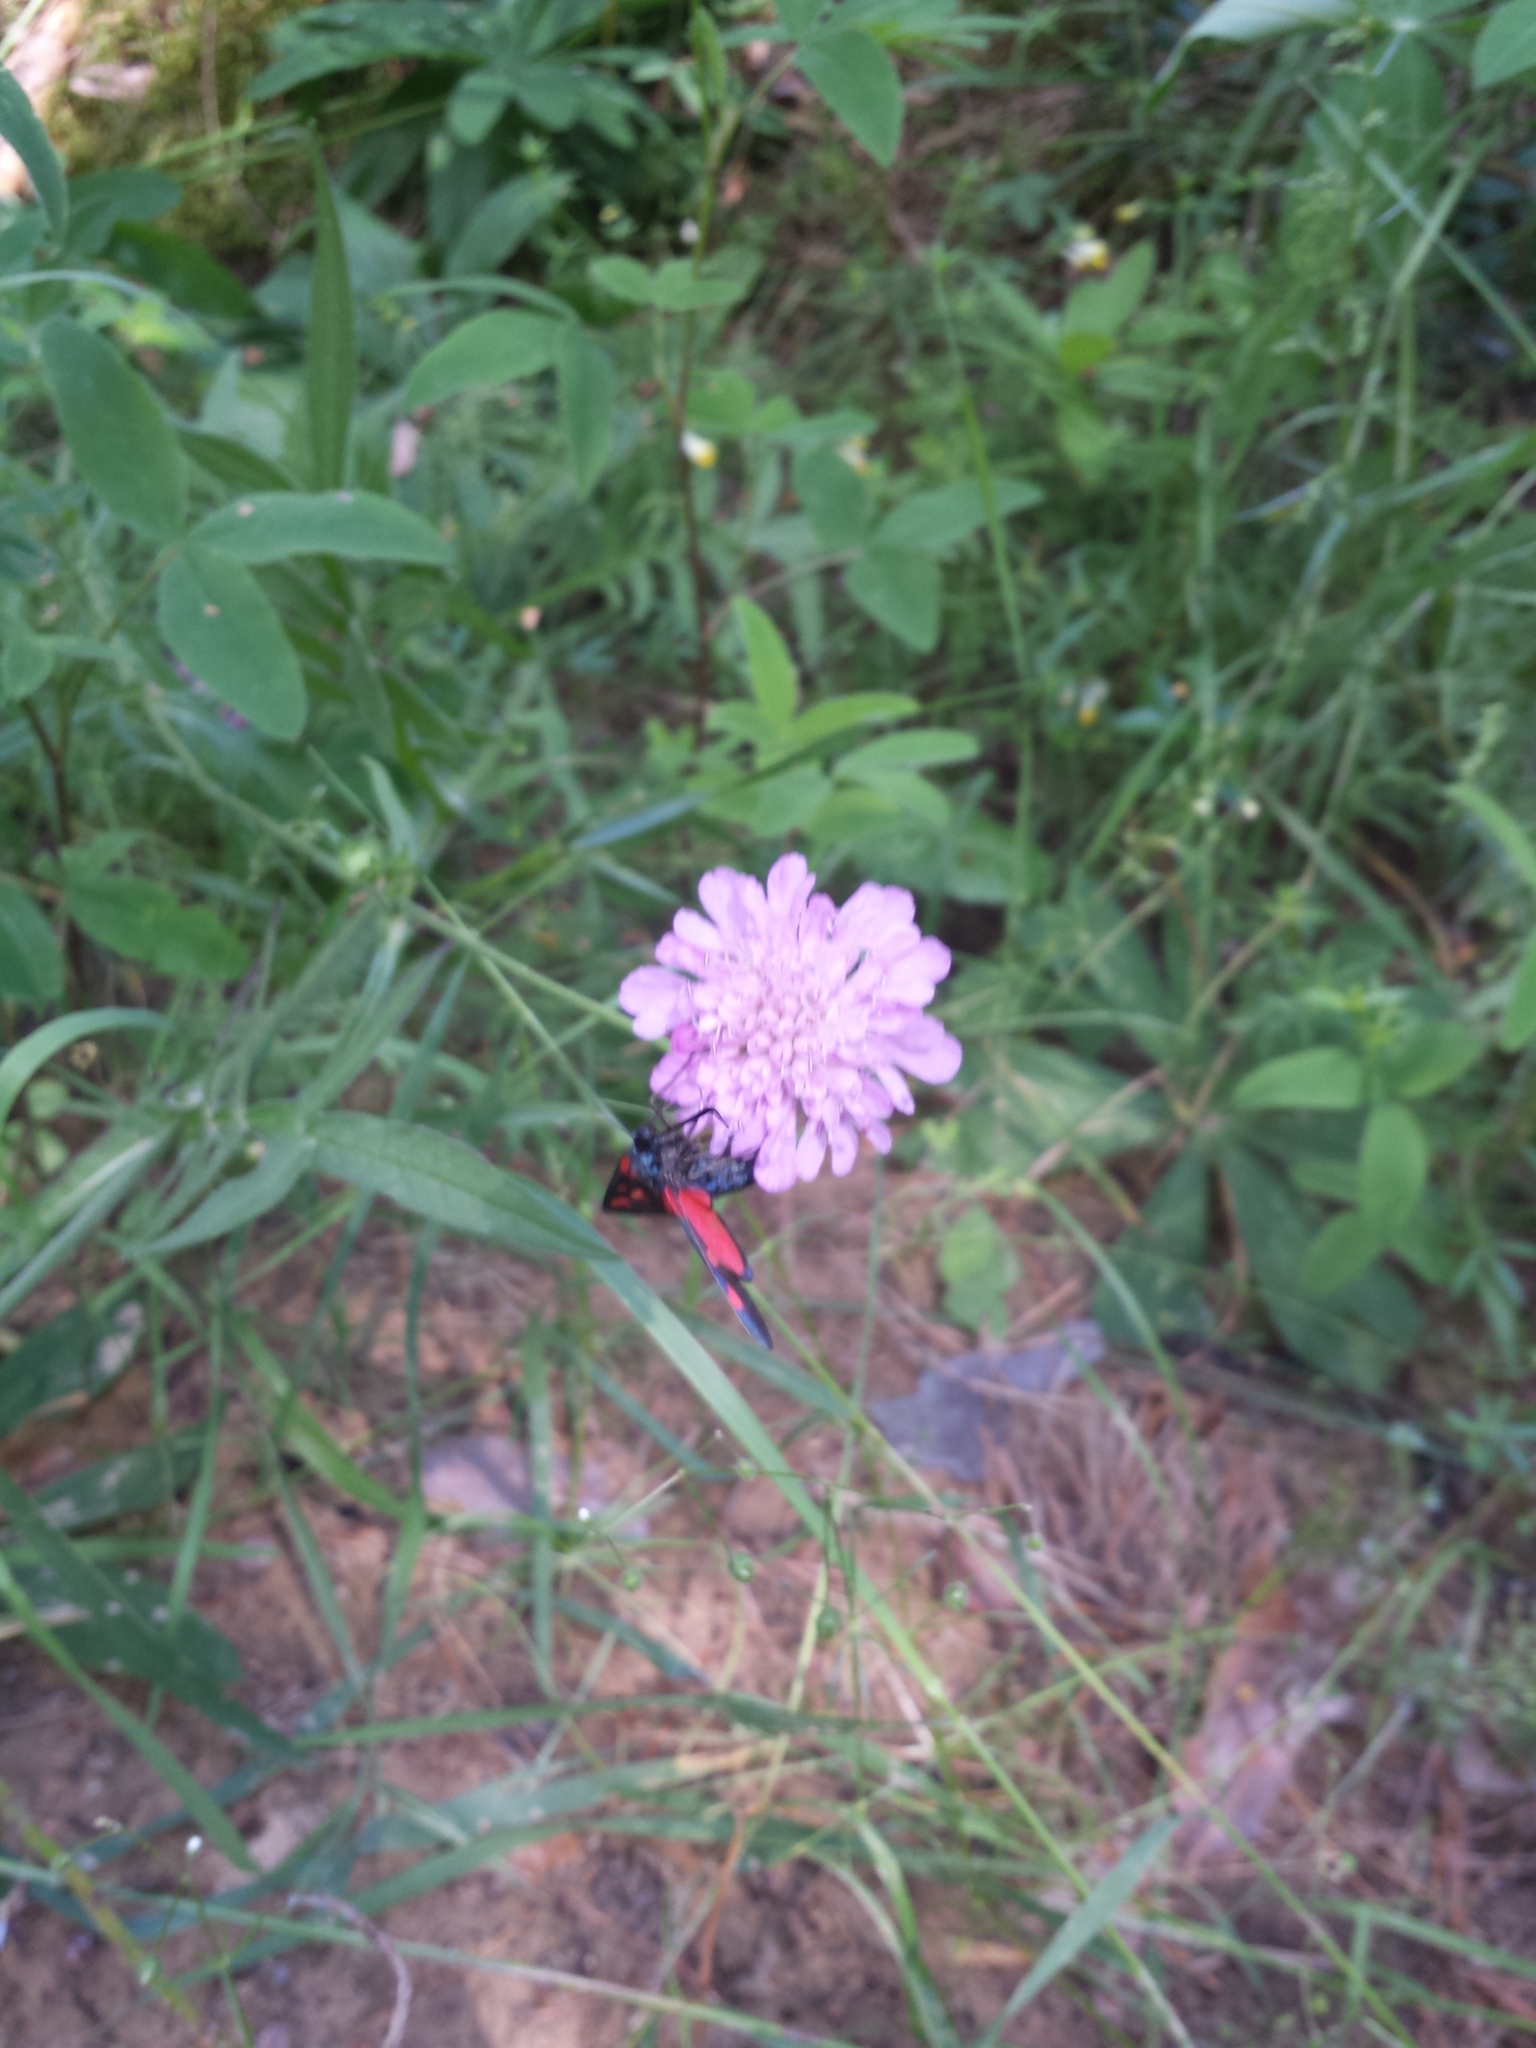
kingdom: Animalia
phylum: Arthropoda
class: Insecta
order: Lepidoptera
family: Zygaenidae
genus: Zygaena
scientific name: Zygaena lonicerae
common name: Narrow-bordered five-spot burnet
